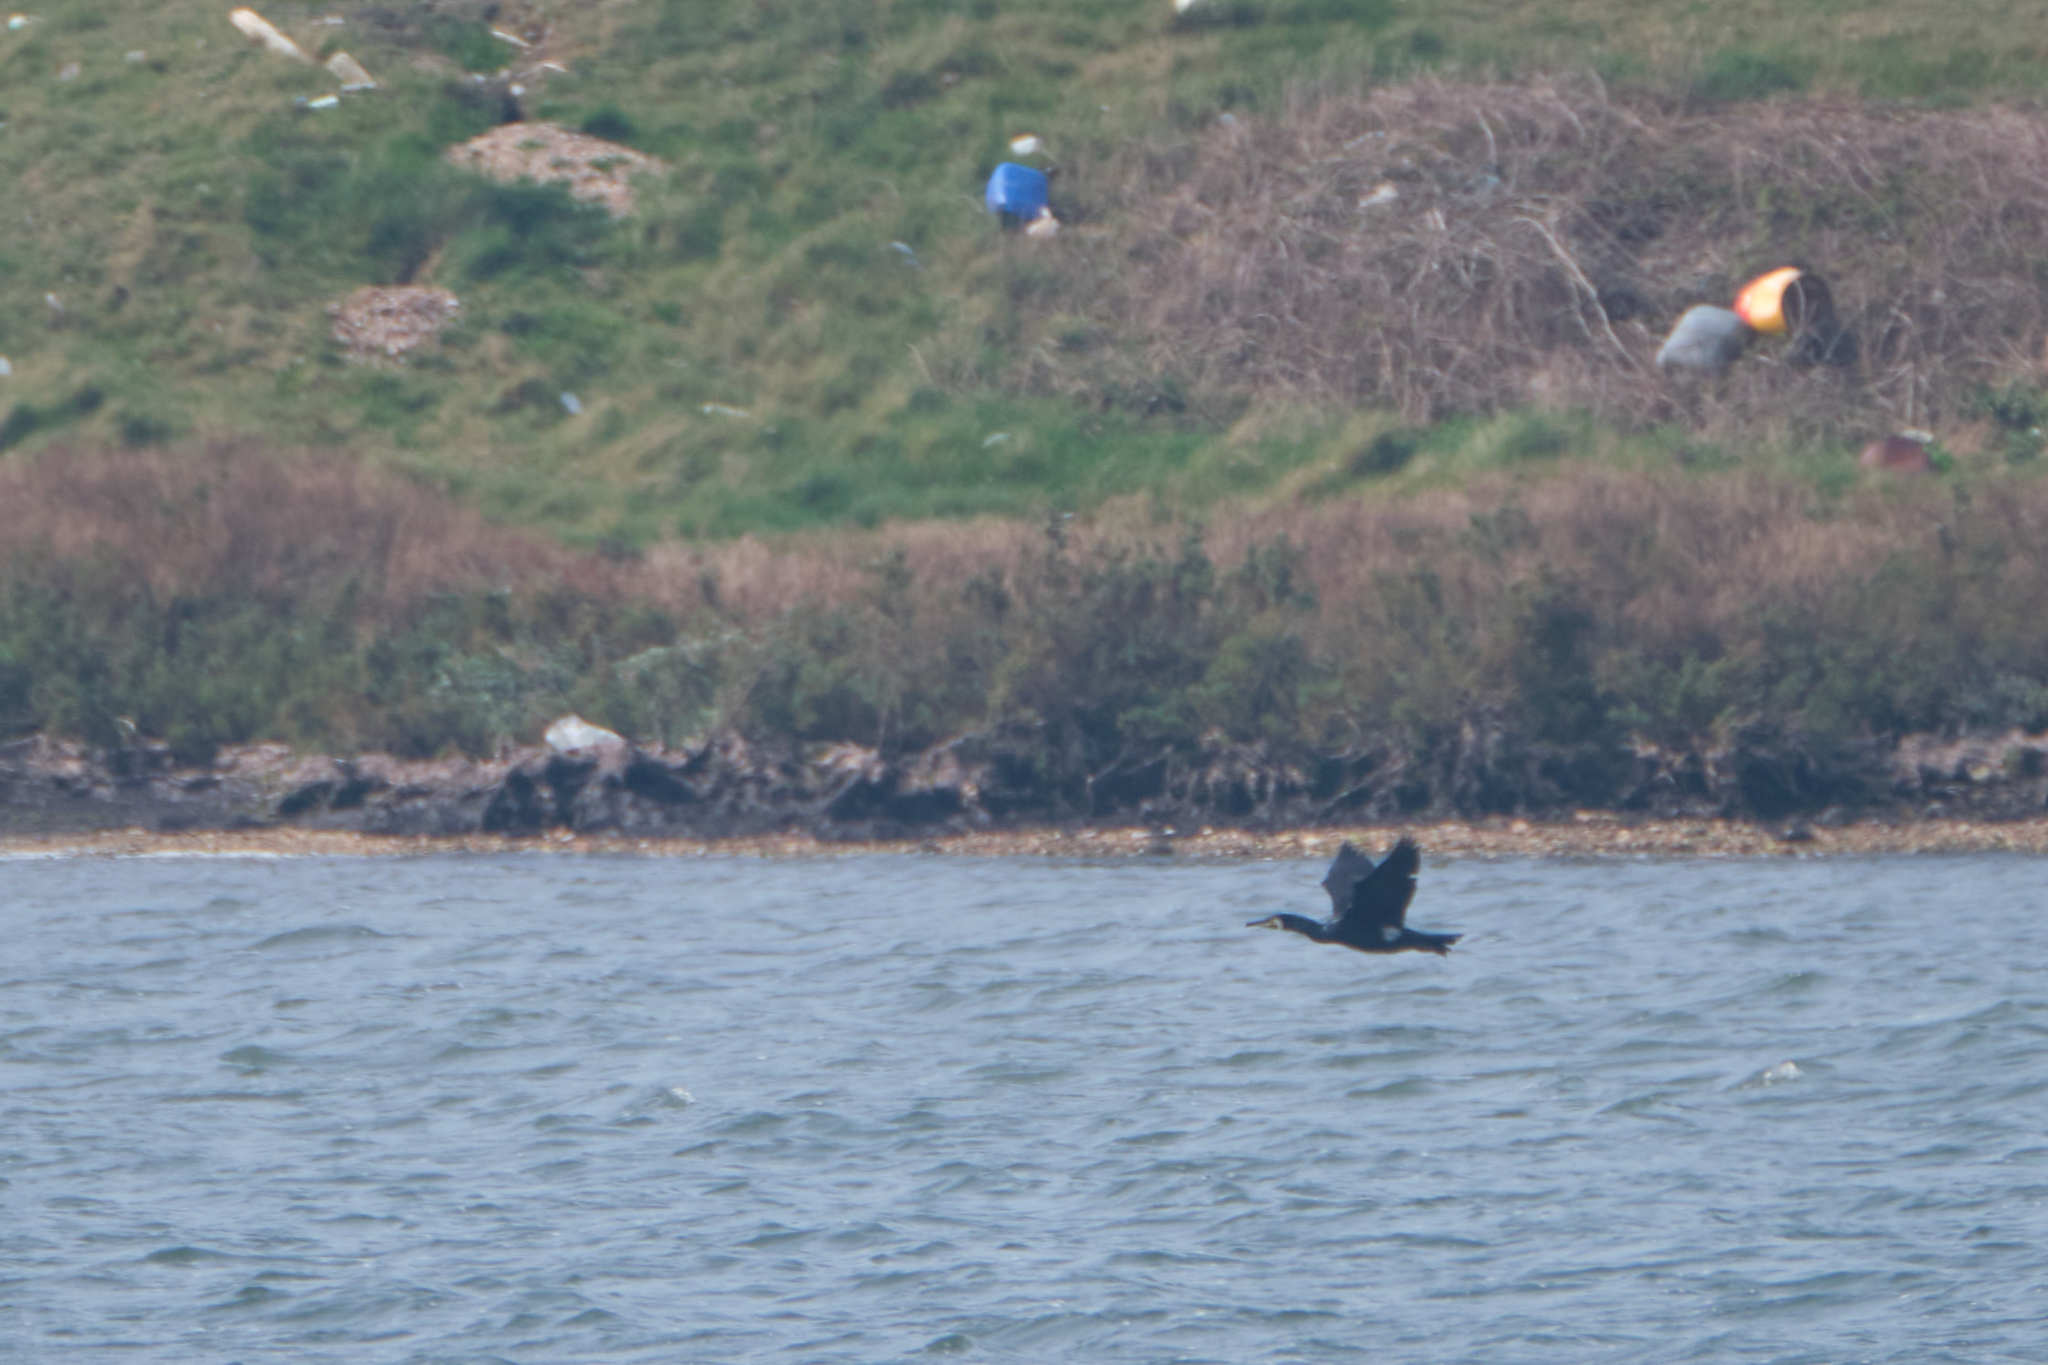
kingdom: Animalia
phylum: Chordata
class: Aves
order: Suliformes
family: Phalacrocoracidae
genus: Phalacrocorax
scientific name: Phalacrocorax carbo
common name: Great cormorant
